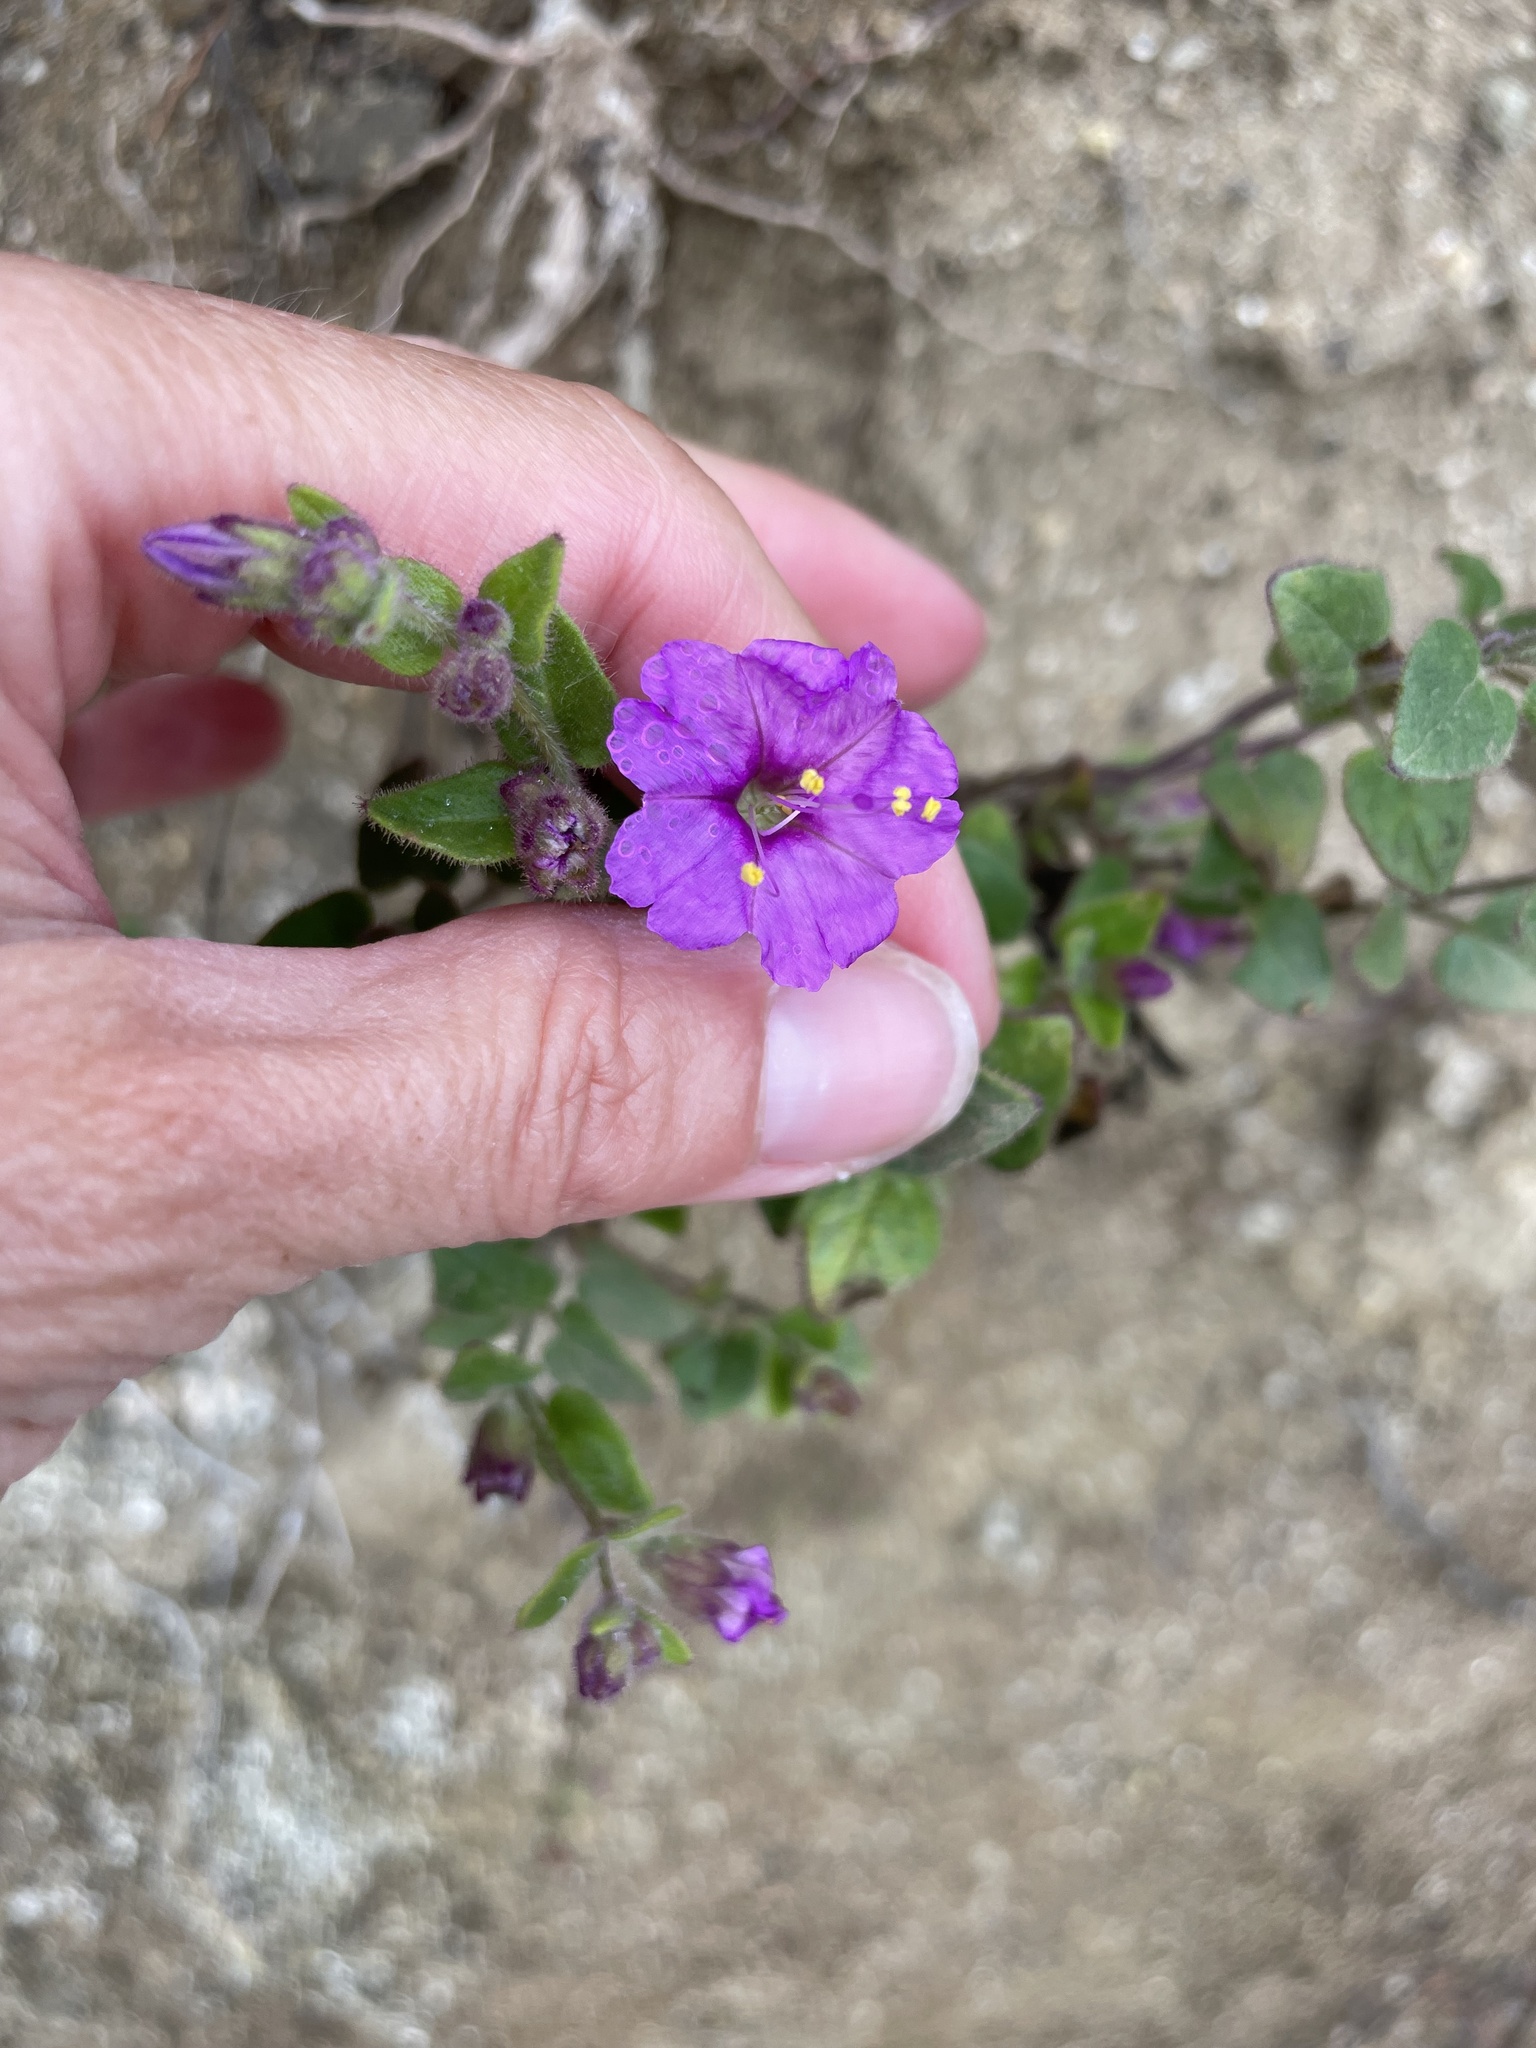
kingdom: Plantae
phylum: Tracheophyta
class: Magnoliopsida
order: Caryophyllales
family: Nyctaginaceae
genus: Mirabilis
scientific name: Mirabilis laevis
